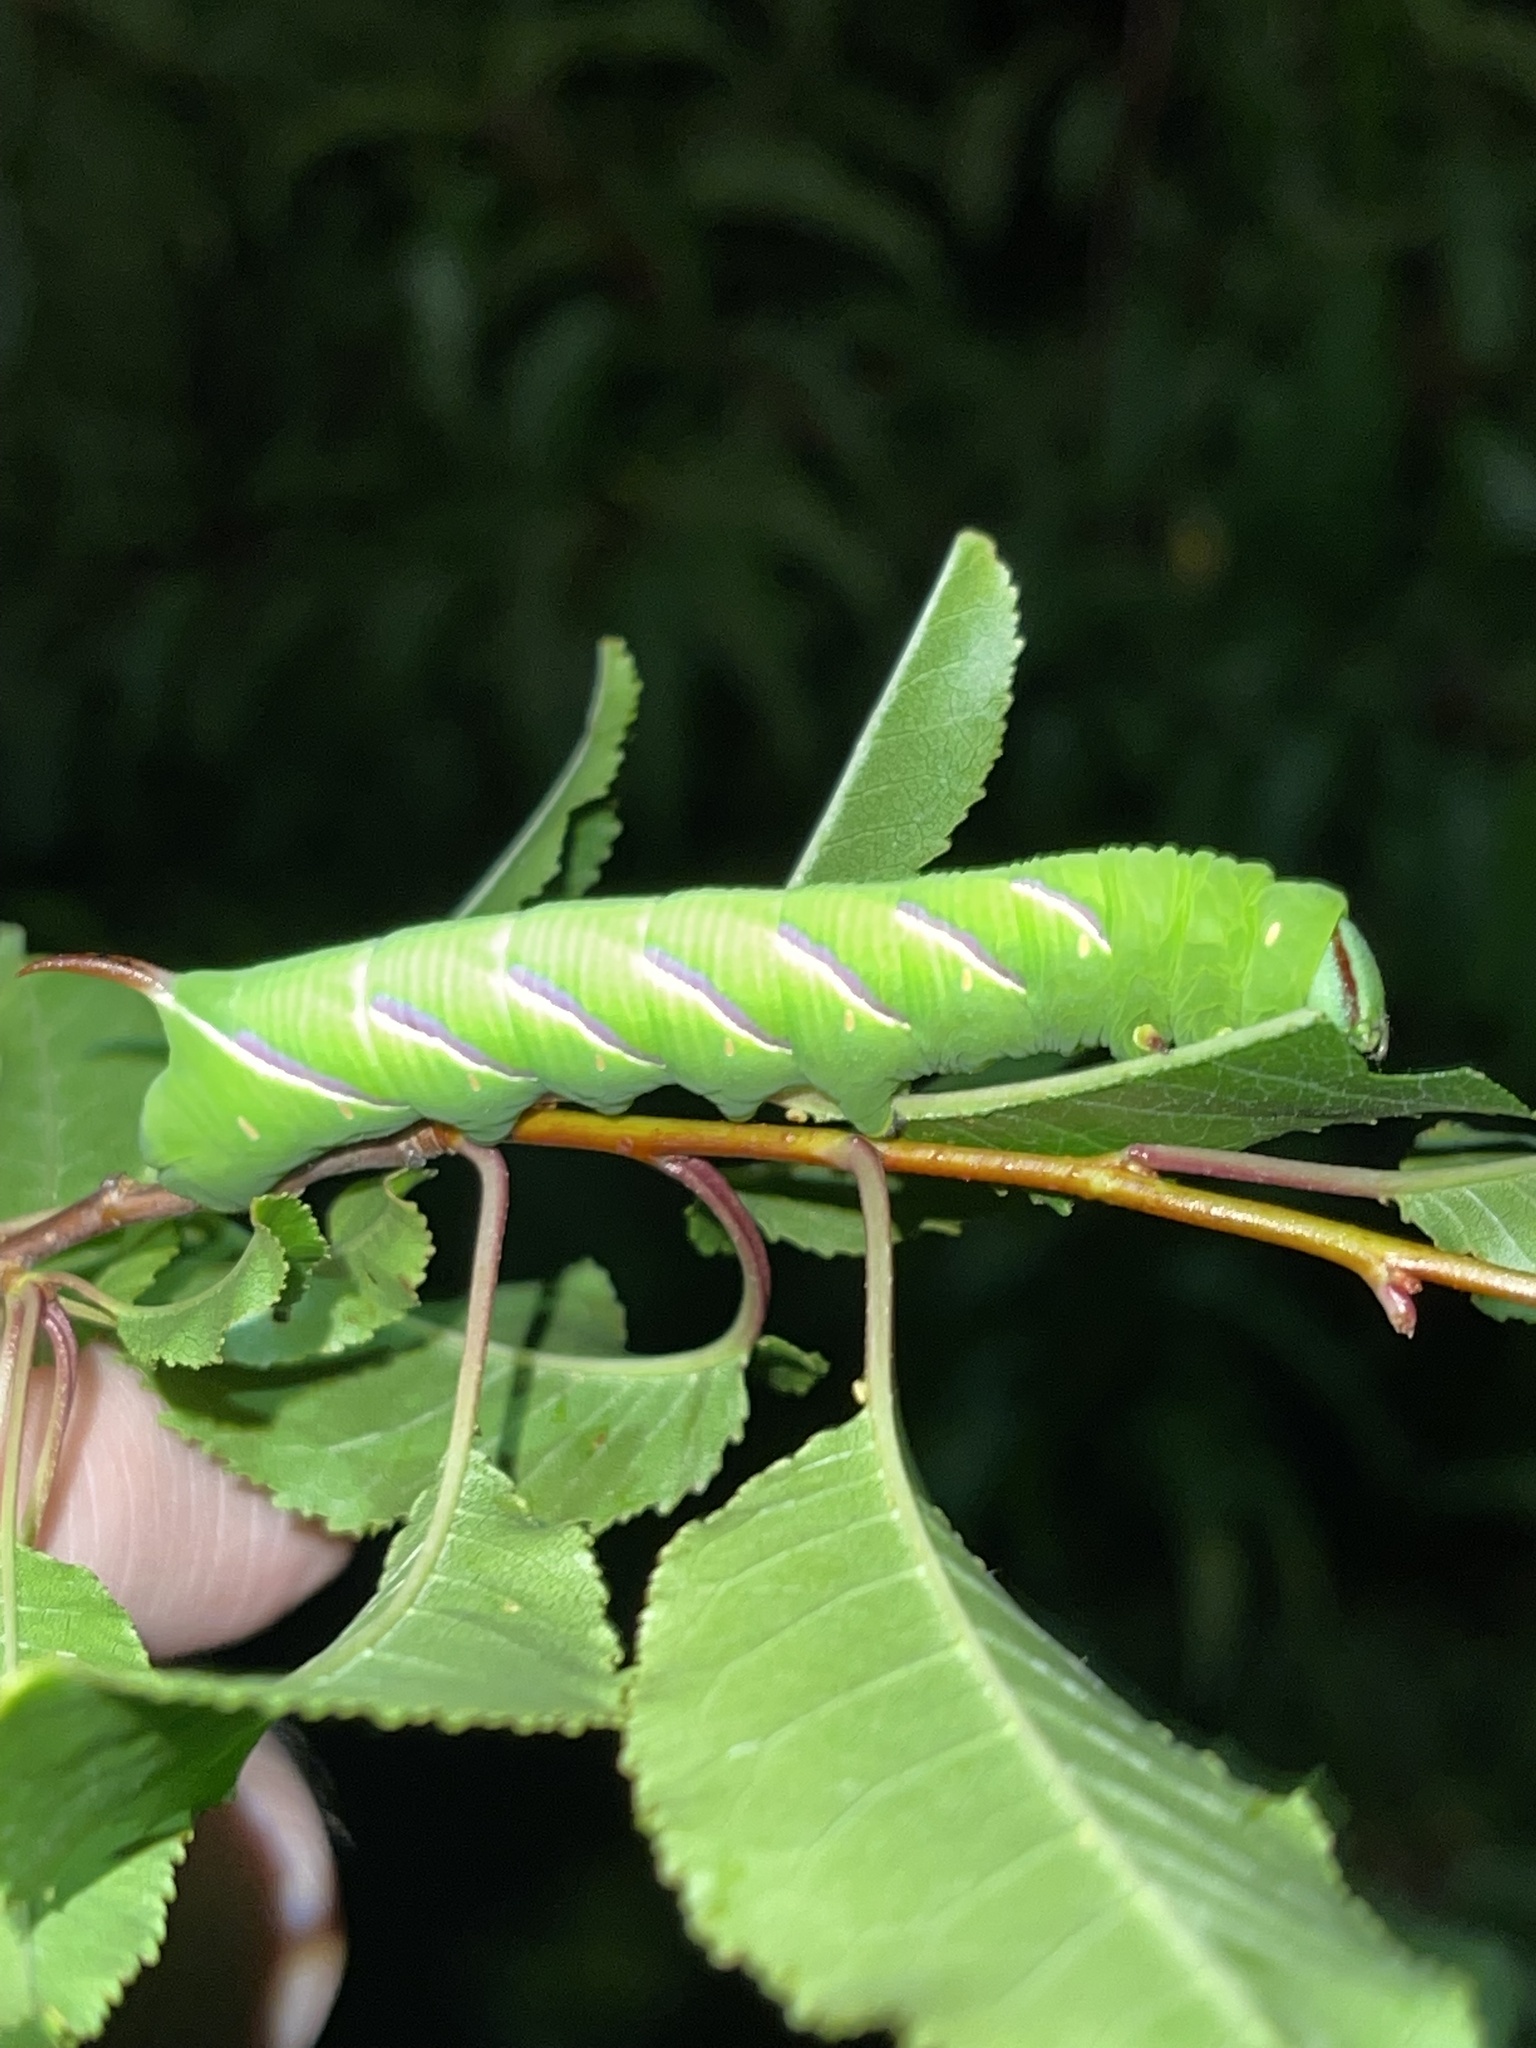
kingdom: Animalia
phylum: Arthropoda
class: Insecta
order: Lepidoptera
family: Sphingidae
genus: Sphinx
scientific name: Sphinx drupiferarum
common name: Wild cherry sphinx
